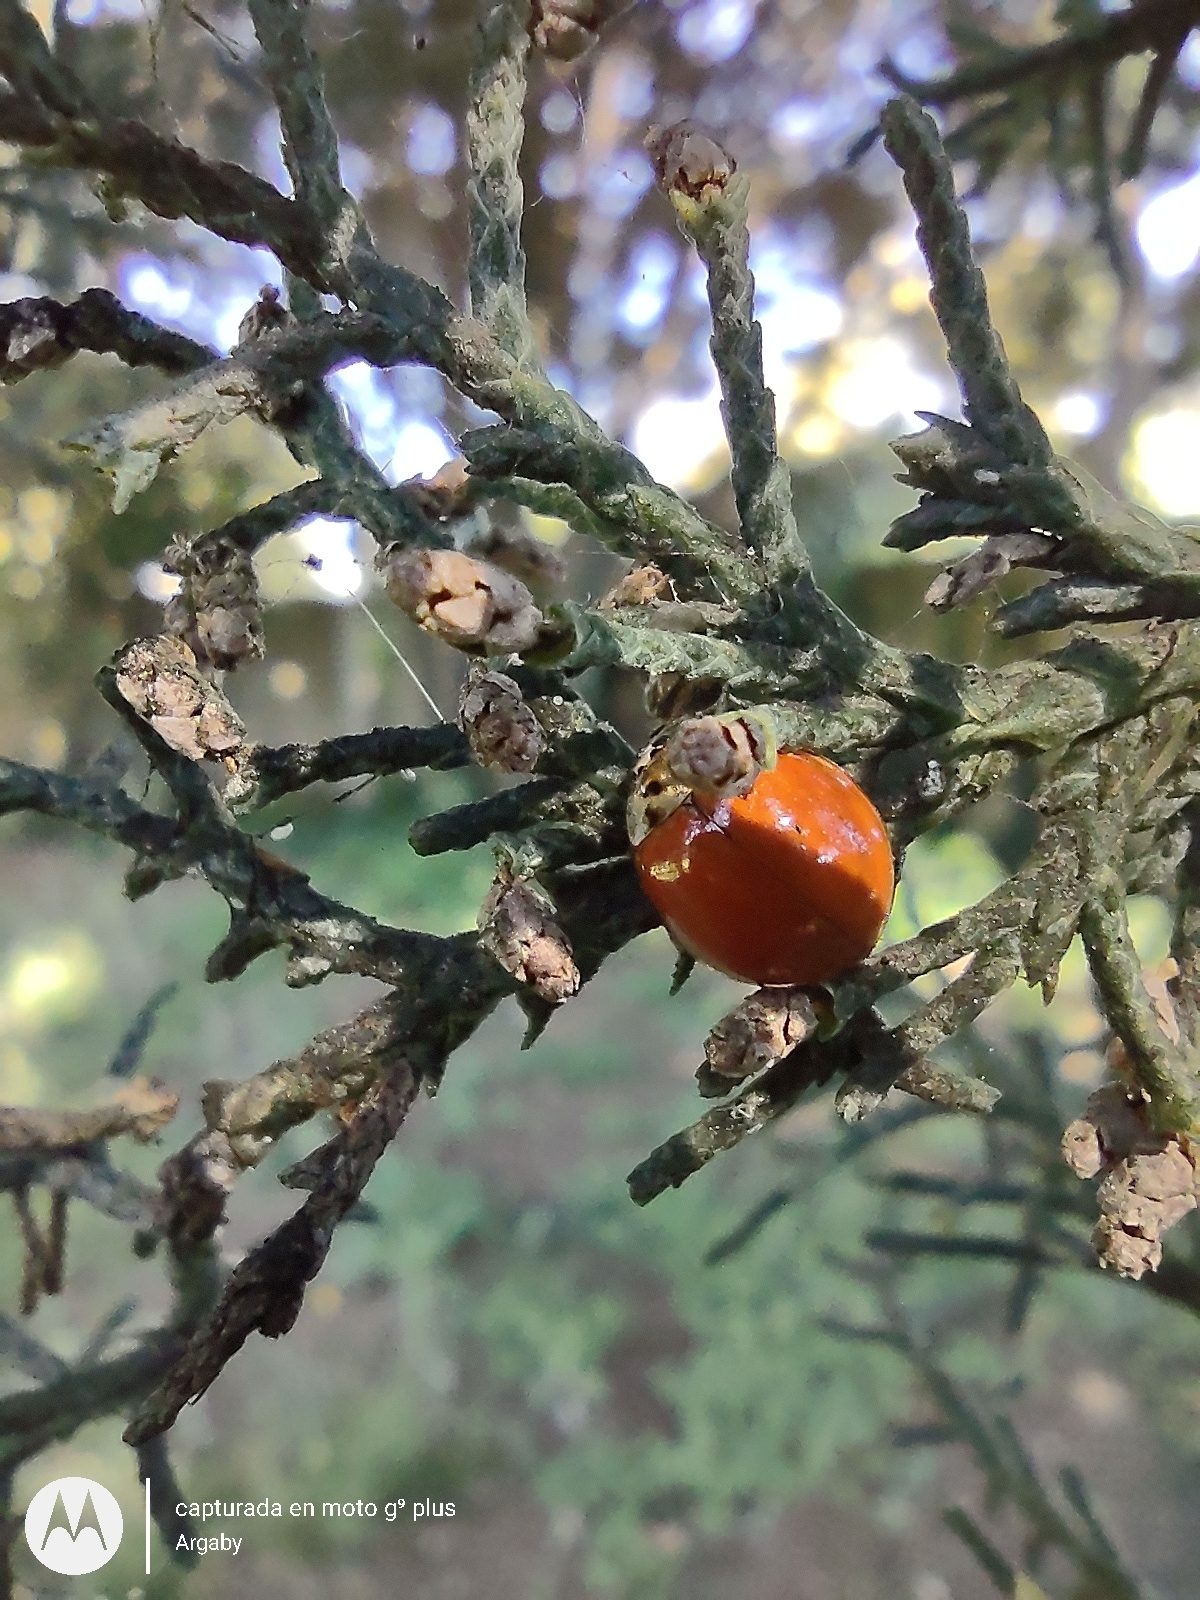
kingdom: Animalia
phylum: Arthropoda
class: Insecta
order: Coleoptera
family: Coccinellidae
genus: Harmonia
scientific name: Harmonia axyridis
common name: Harlequin ladybird
